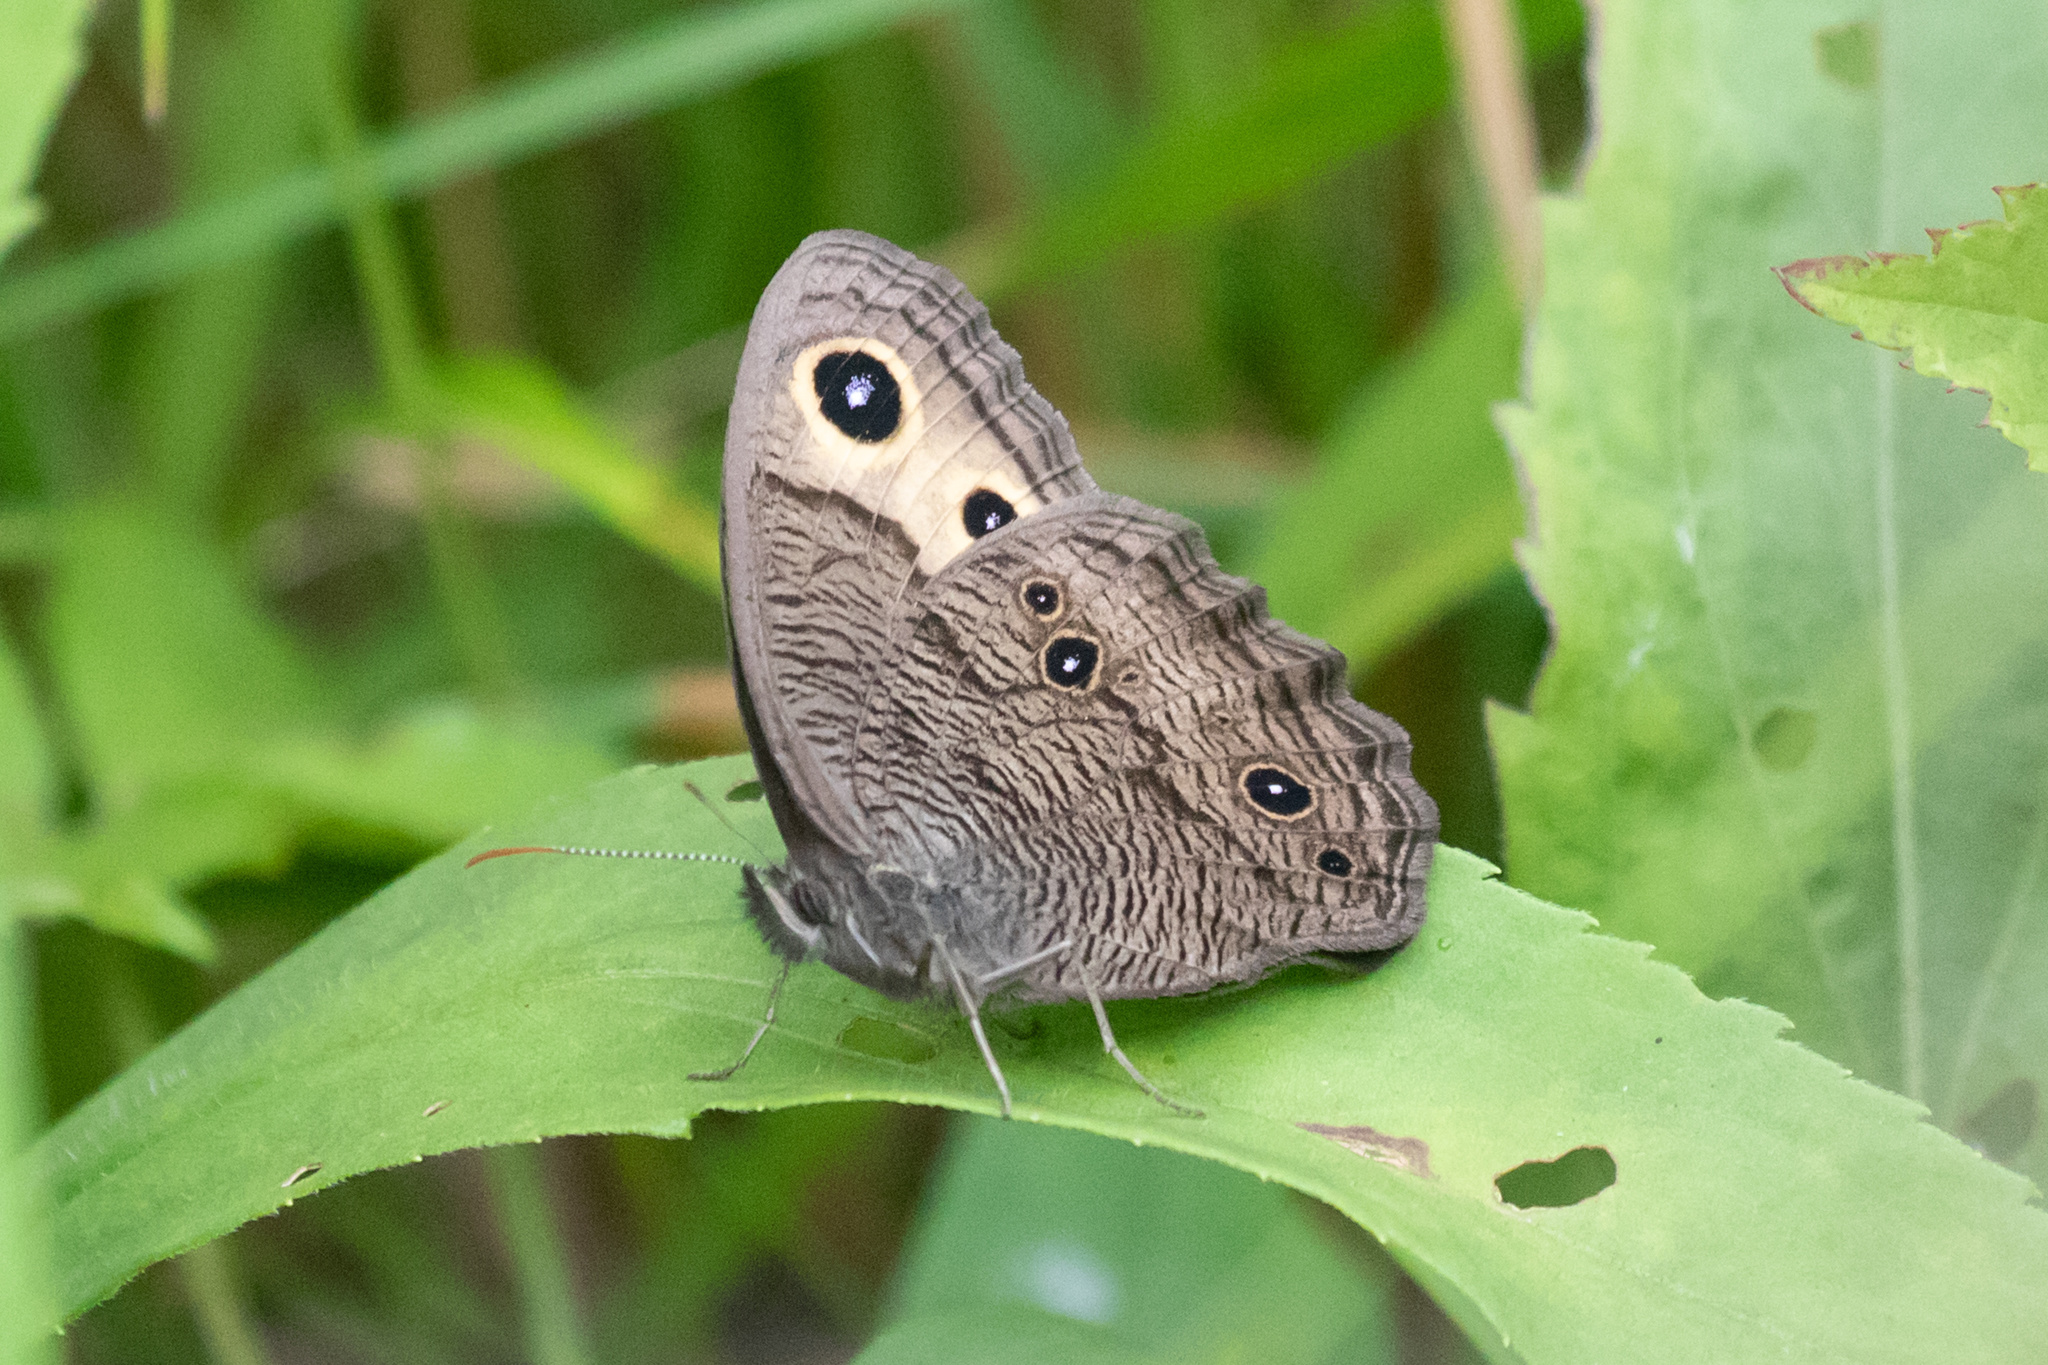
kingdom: Animalia
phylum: Arthropoda
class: Insecta
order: Lepidoptera
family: Nymphalidae
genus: Cercyonis
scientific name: Cercyonis pegala
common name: Common wood-nymph
